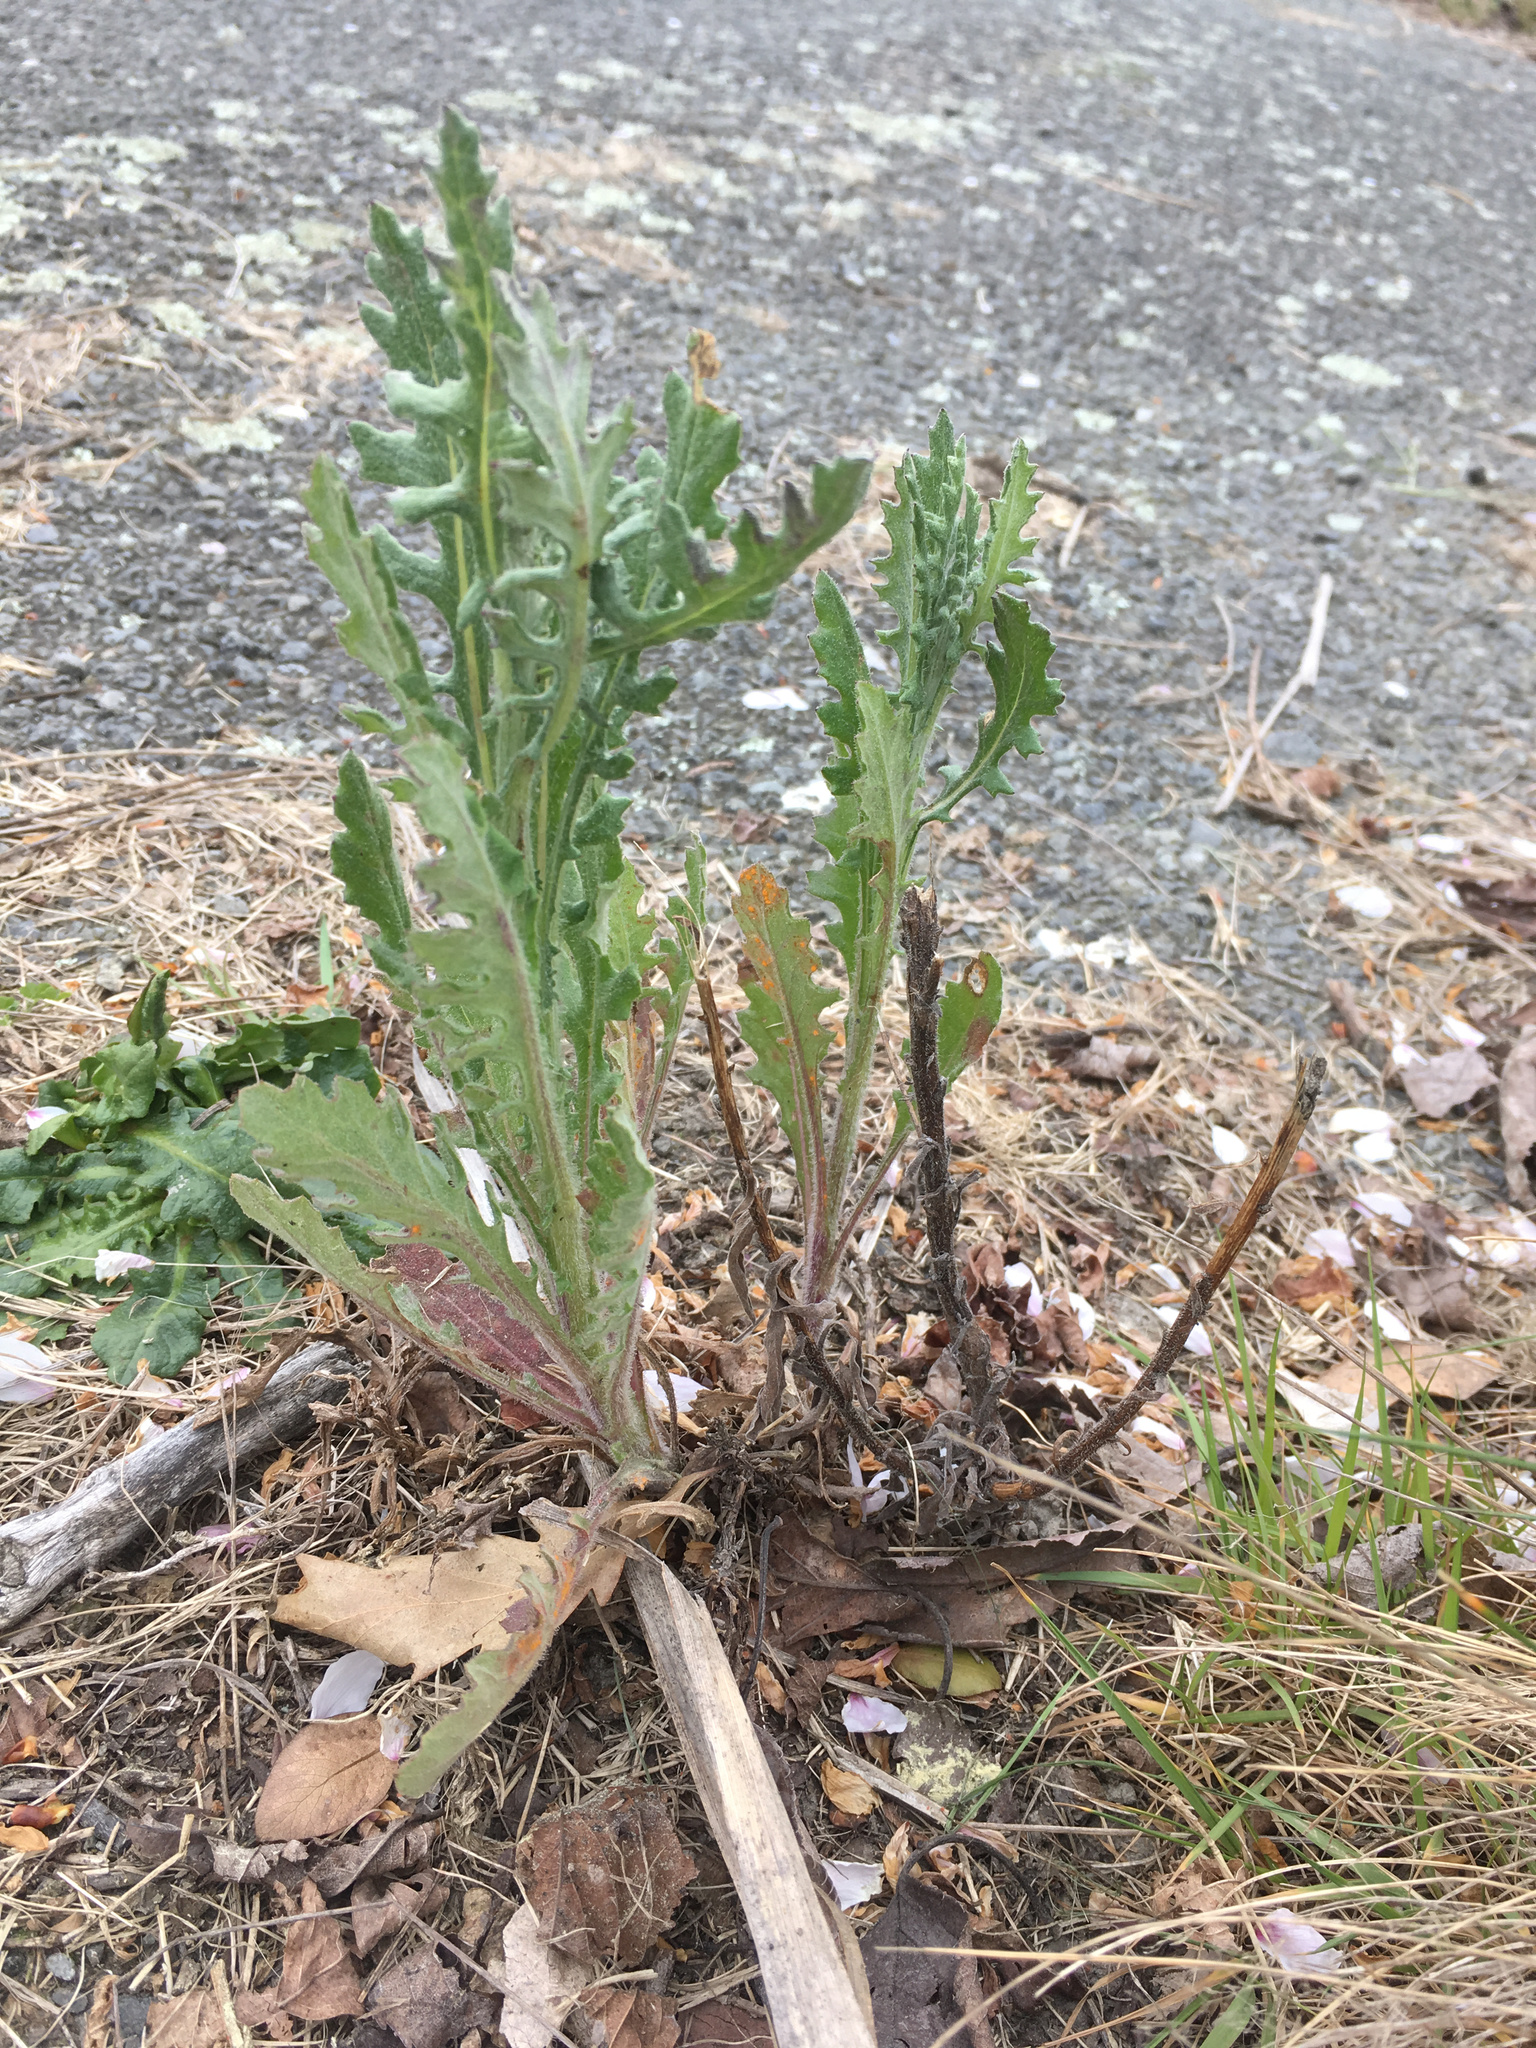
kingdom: Plantae
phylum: Tracheophyta
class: Magnoliopsida
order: Asterales
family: Asteraceae
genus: Senecio
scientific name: Senecio glomeratus
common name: Cutleaf burnweed
